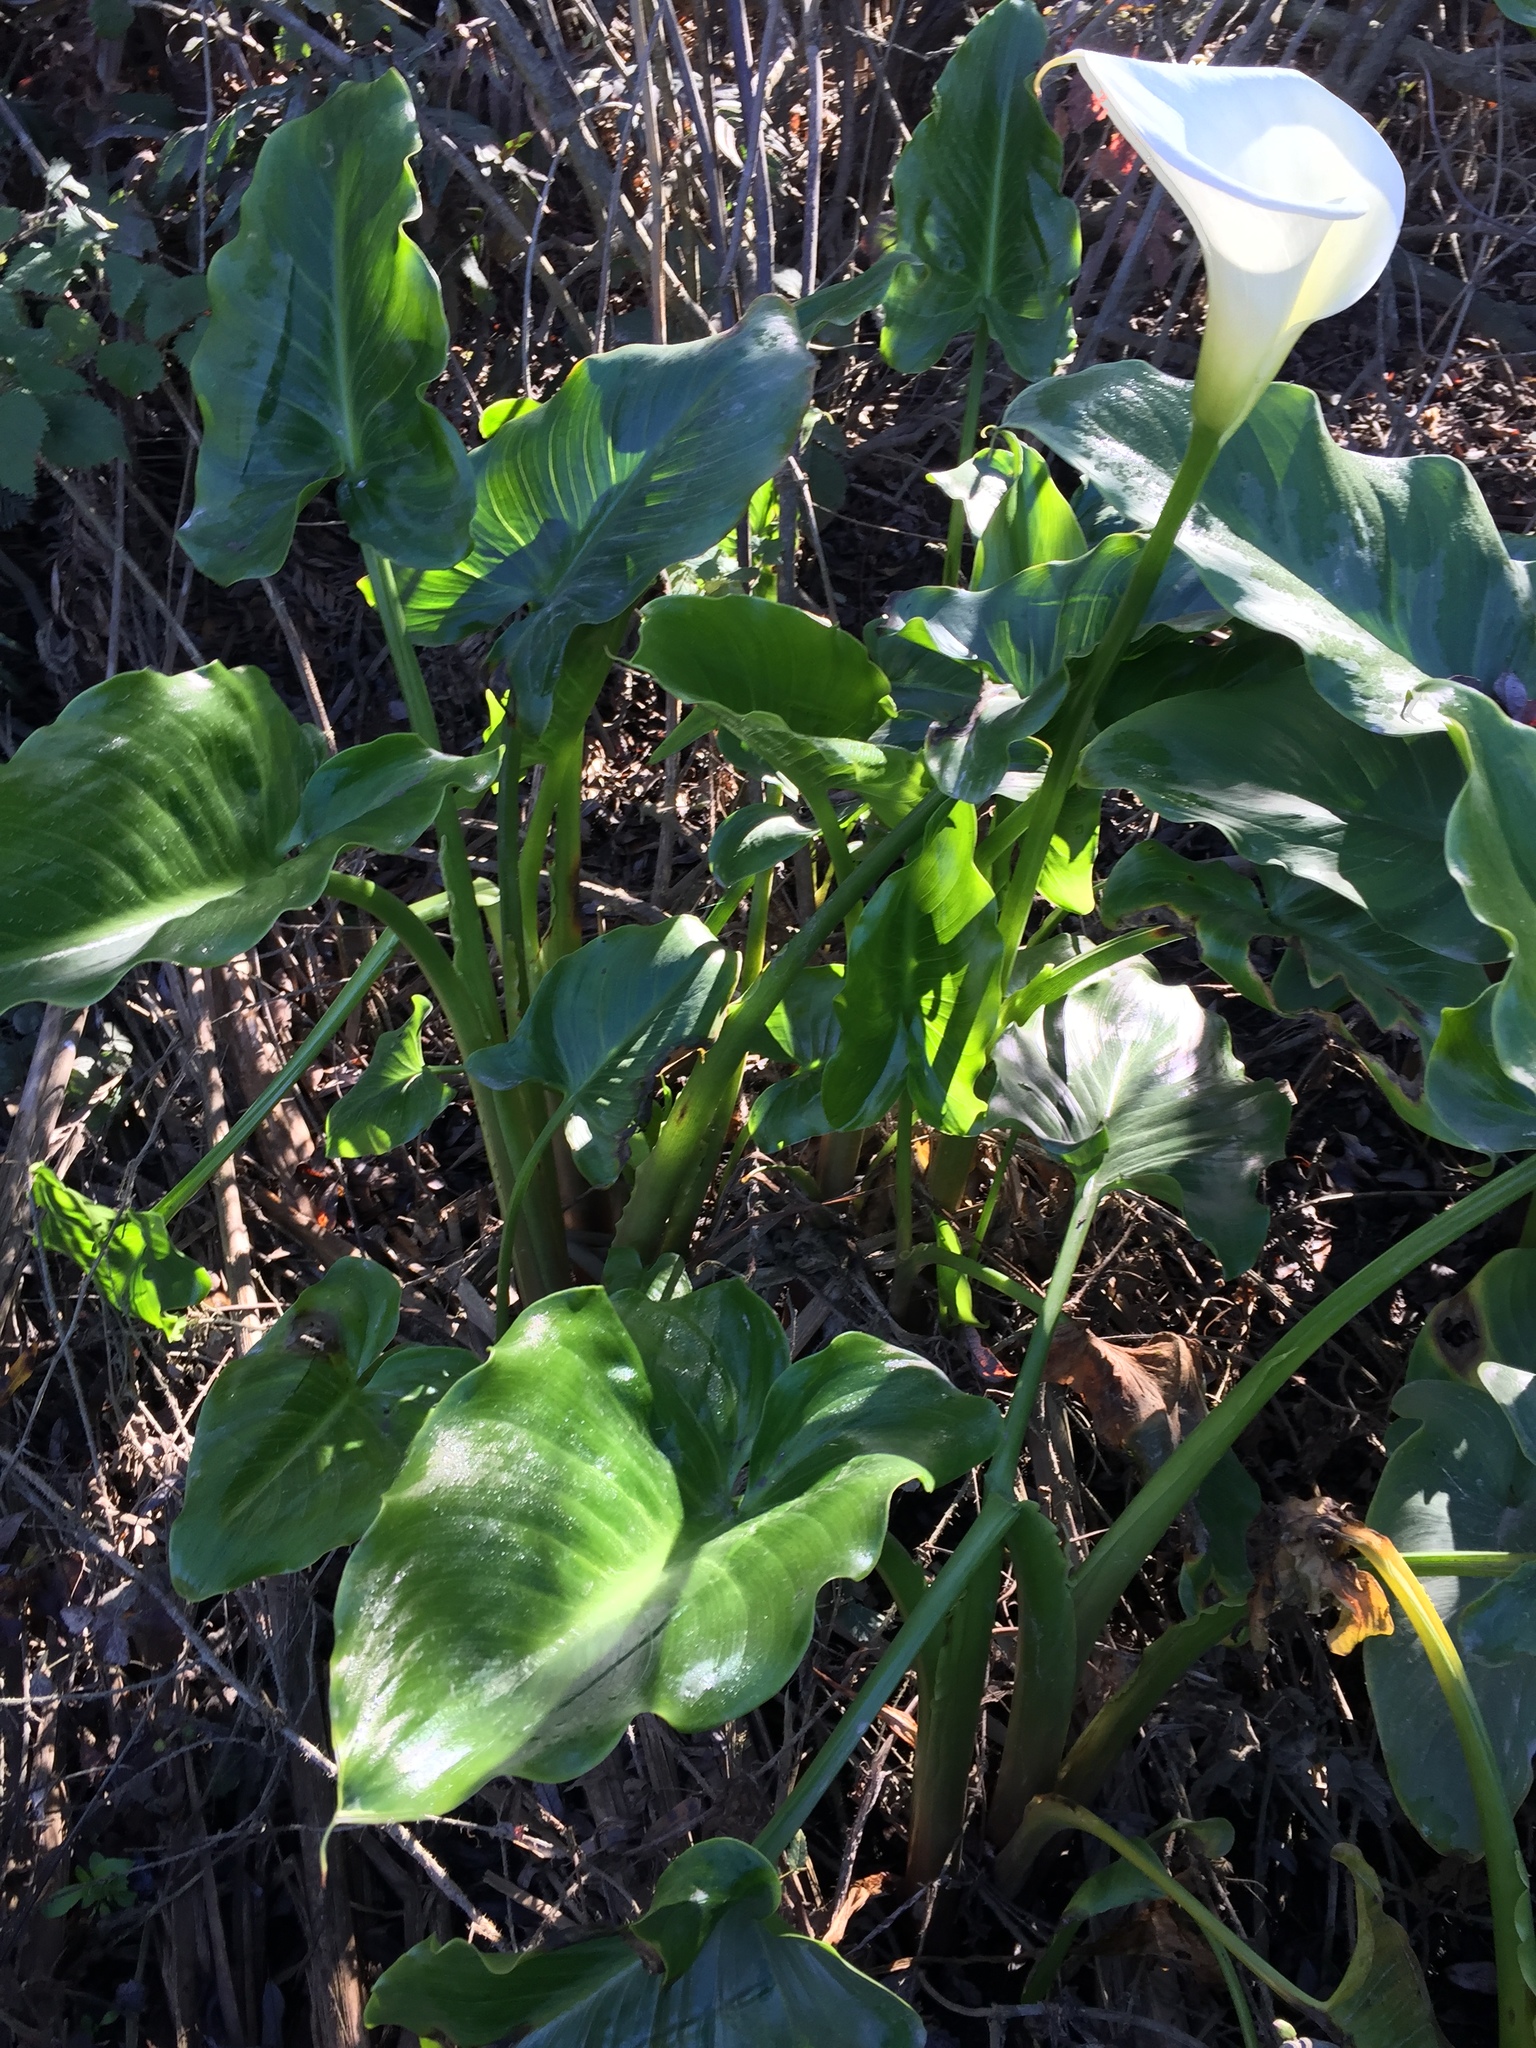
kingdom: Plantae
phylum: Tracheophyta
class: Liliopsida
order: Alismatales
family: Araceae
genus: Zantedeschia
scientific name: Zantedeschia aethiopica
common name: Altar-lily
